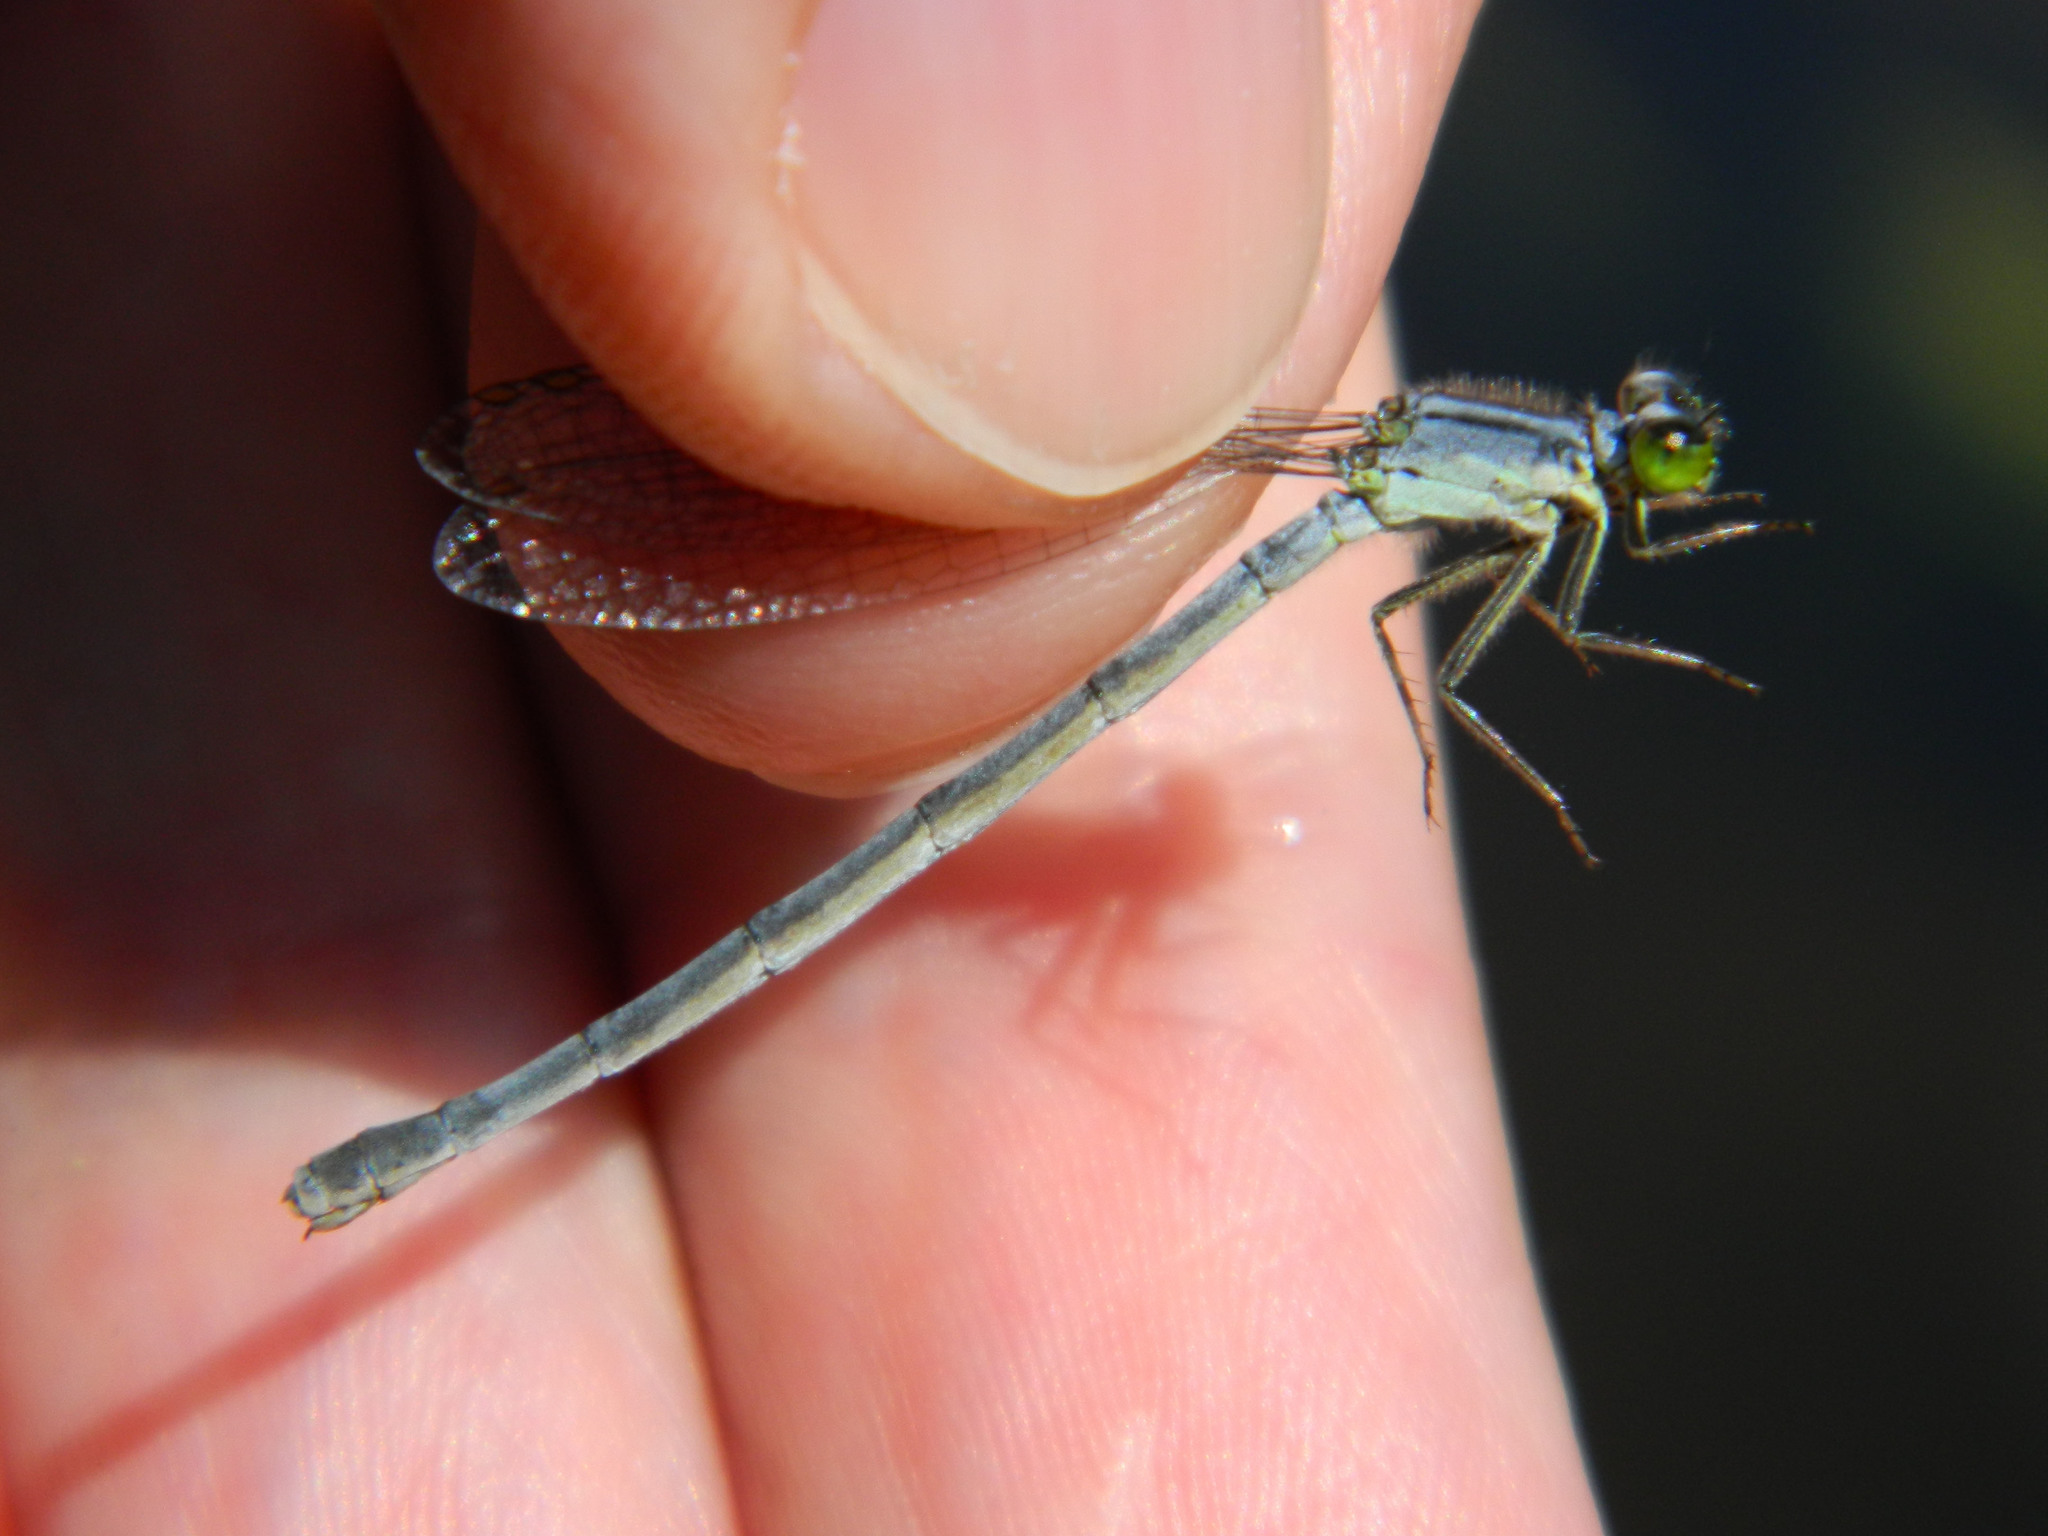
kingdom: Animalia
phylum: Arthropoda
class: Insecta
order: Odonata
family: Coenagrionidae
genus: Ischnura
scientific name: Ischnura verticalis
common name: Eastern forktail
